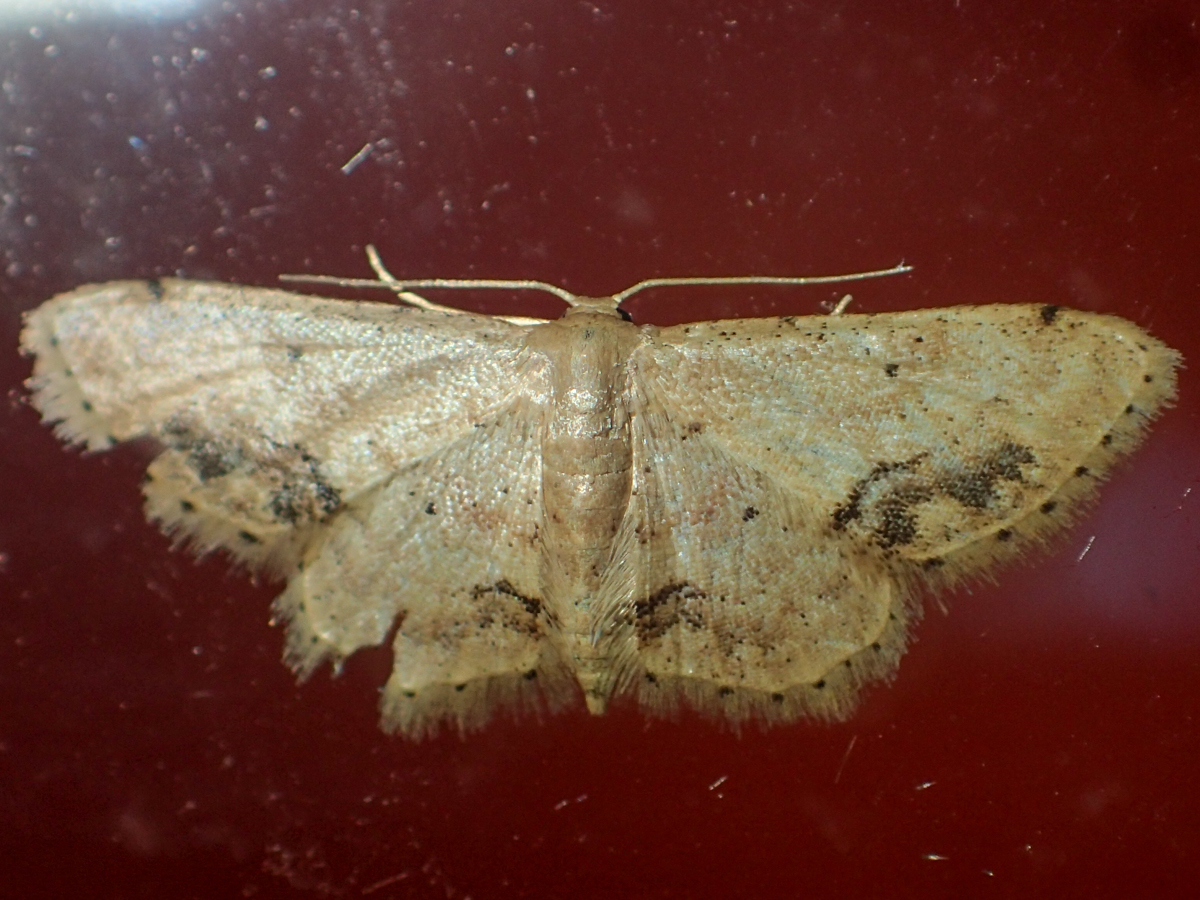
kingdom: Animalia
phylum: Arthropoda
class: Insecta
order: Lepidoptera
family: Geometridae
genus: Idaea
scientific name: Idaea chotaria
